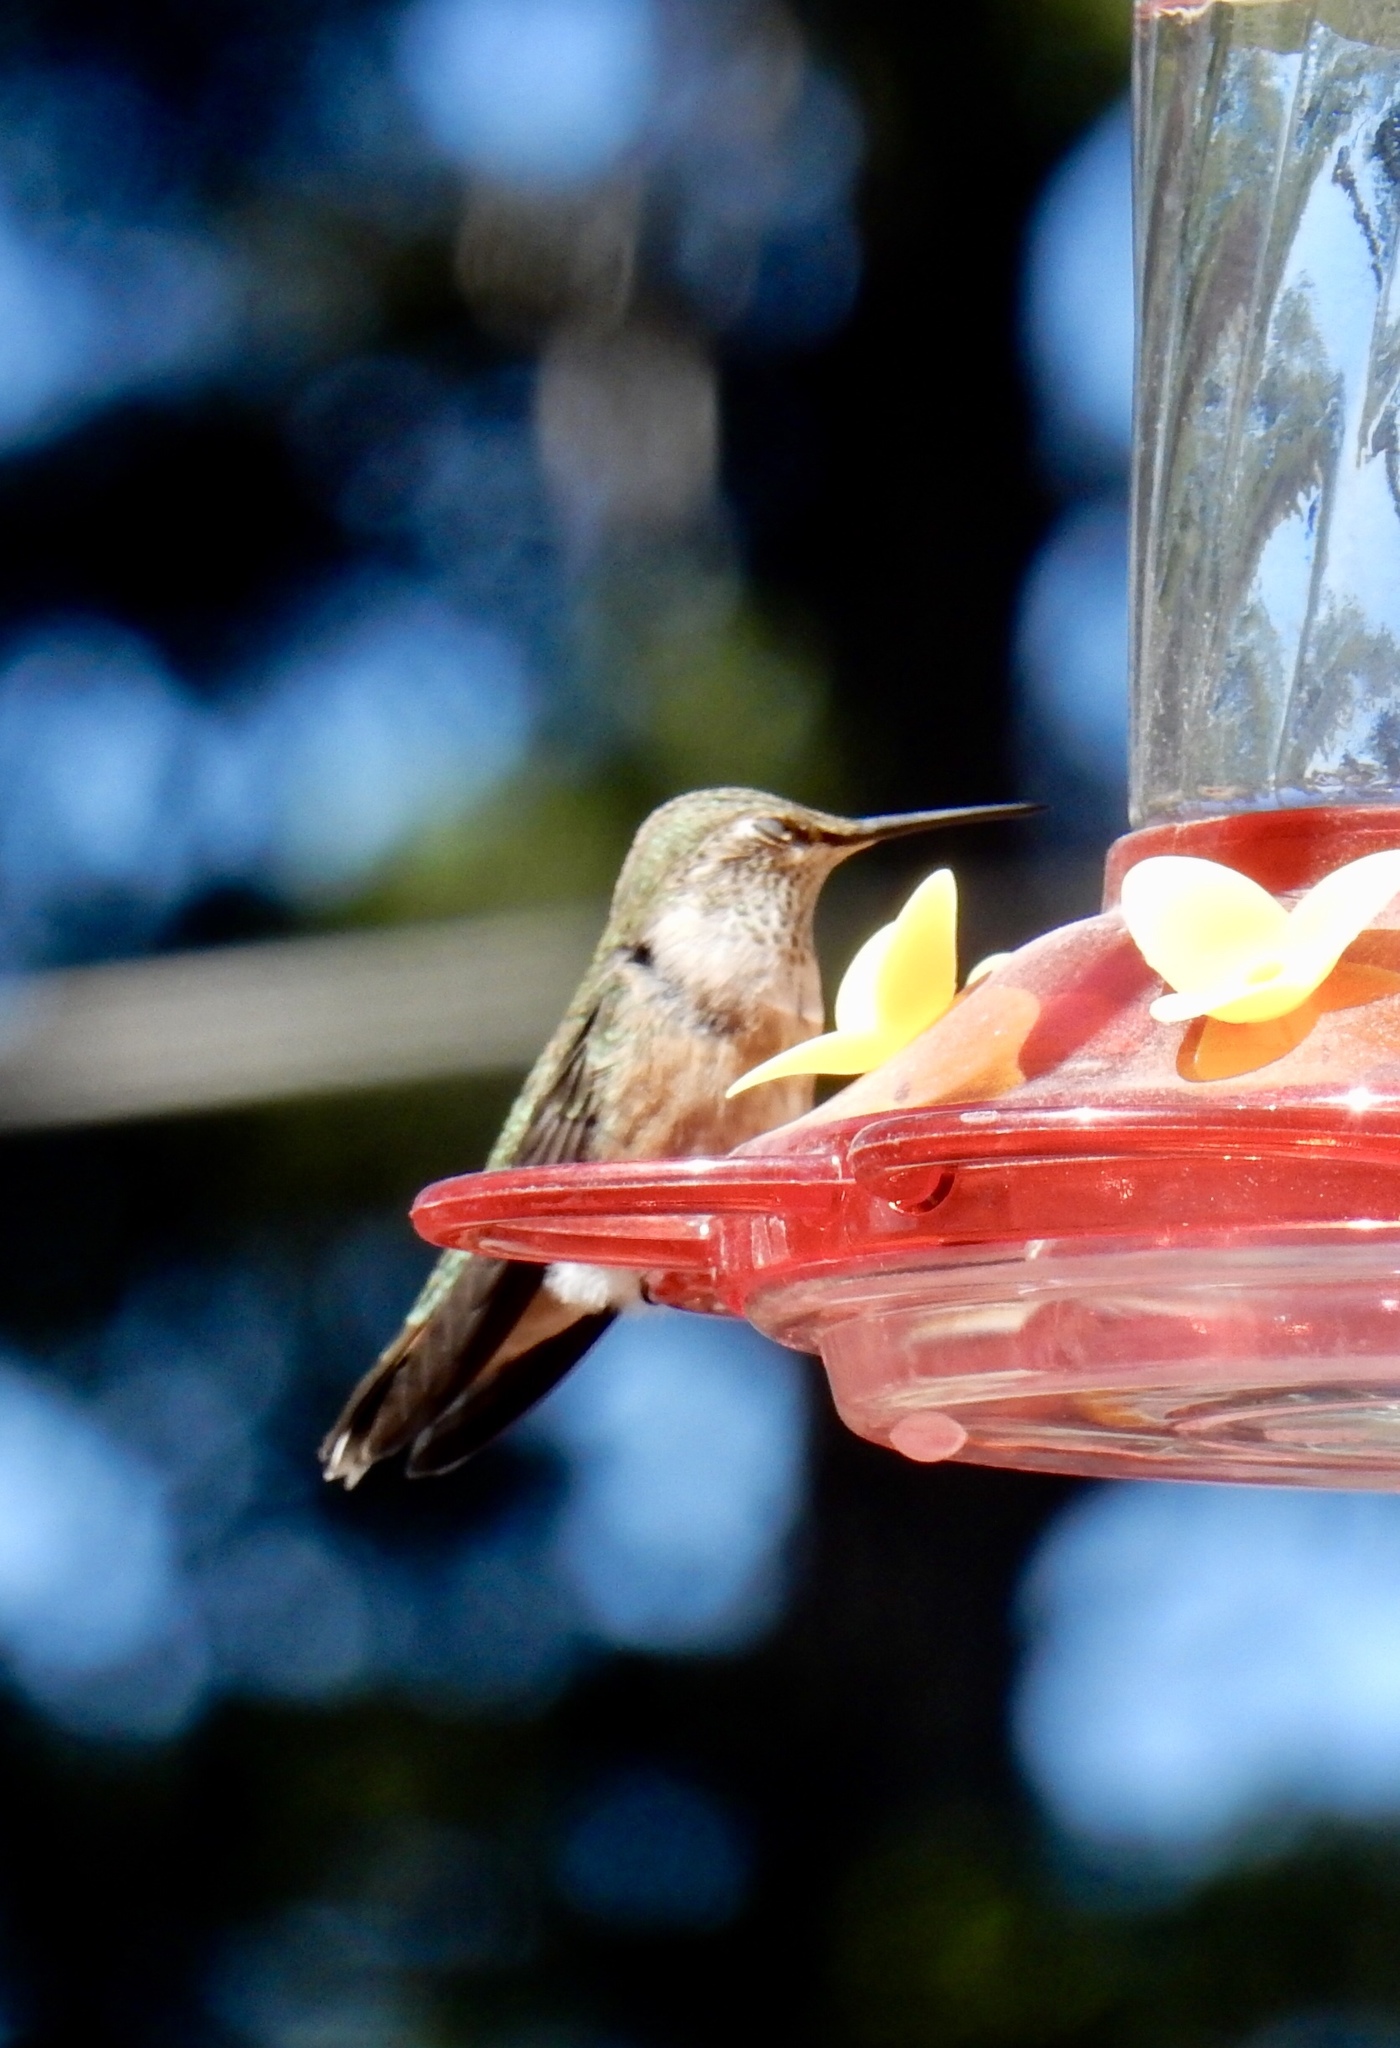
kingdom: Animalia
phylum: Chordata
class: Aves
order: Apodiformes
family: Trochilidae
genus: Selasphorus
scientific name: Selasphorus platycercus
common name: Broad-tailed hummingbird
